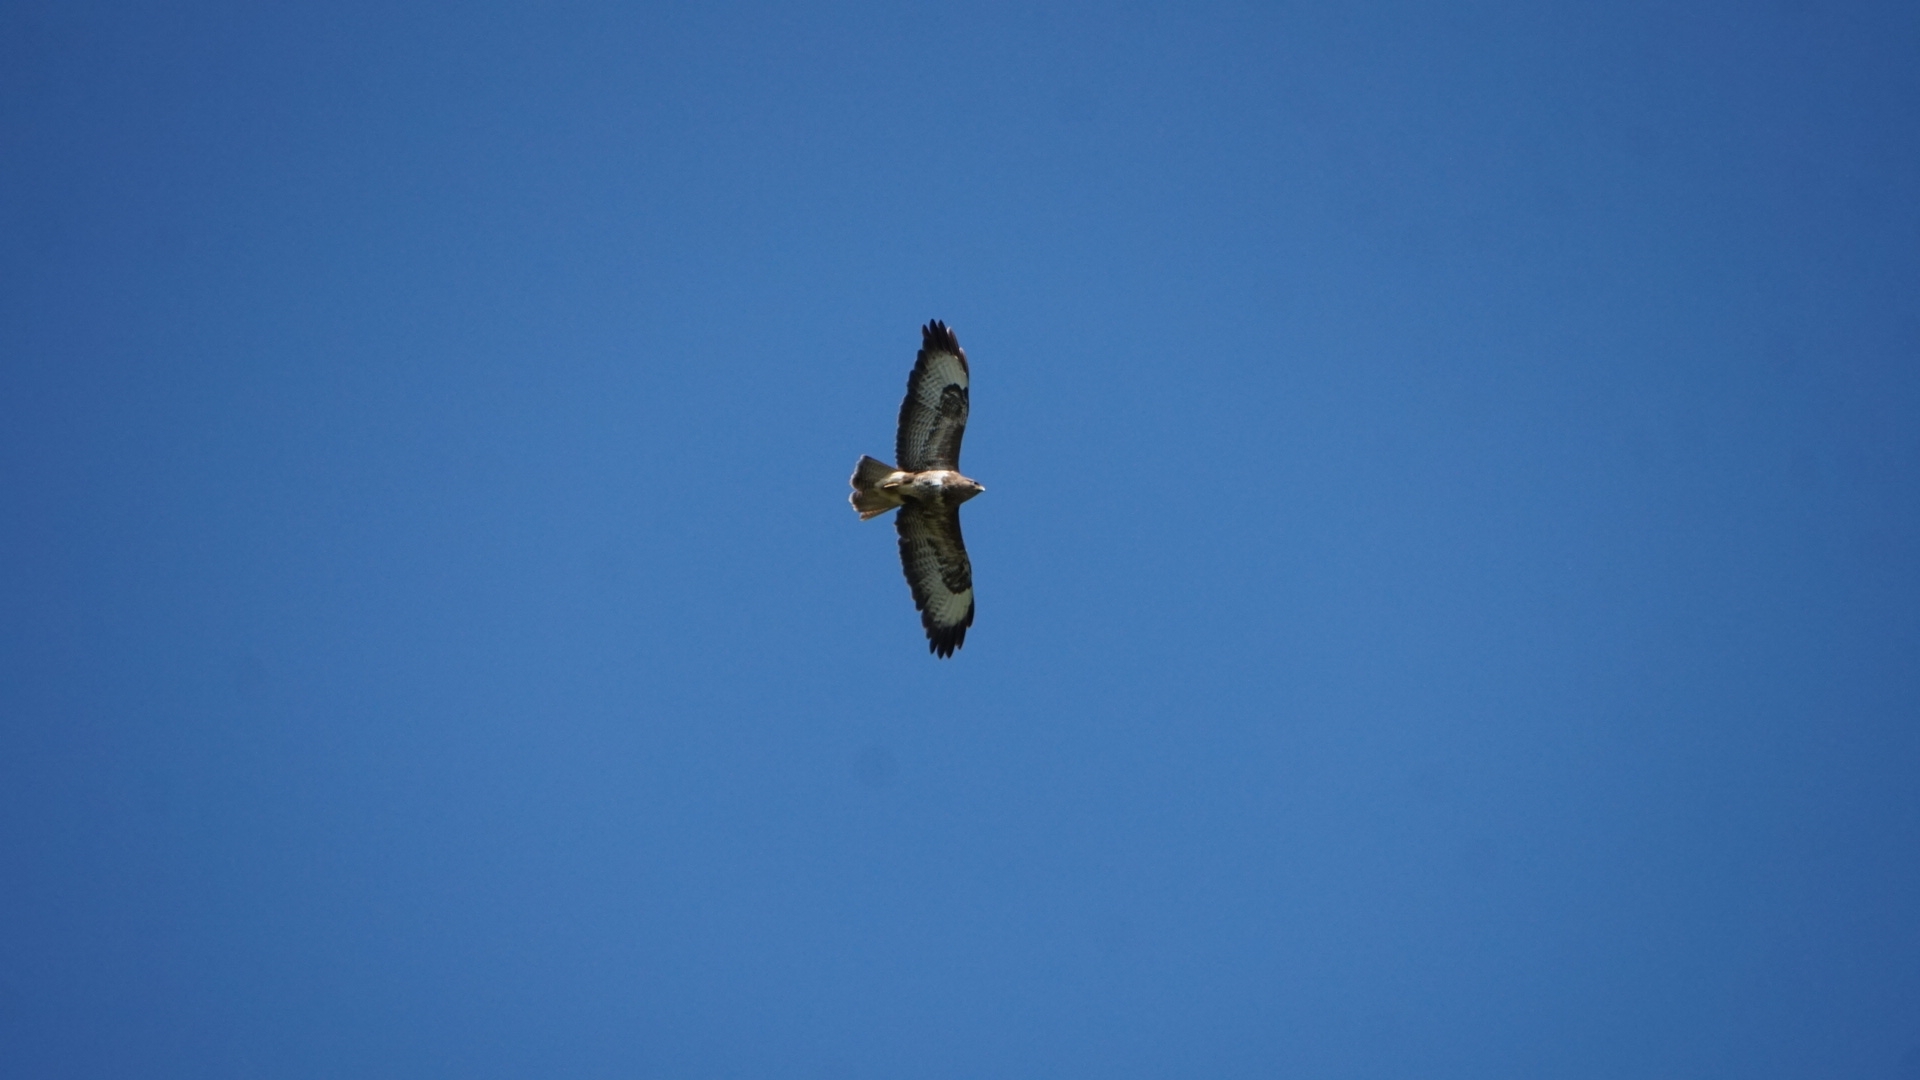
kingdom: Animalia
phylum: Chordata
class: Aves
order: Accipitriformes
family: Accipitridae
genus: Buteo
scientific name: Buteo buteo
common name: Common buzzard
